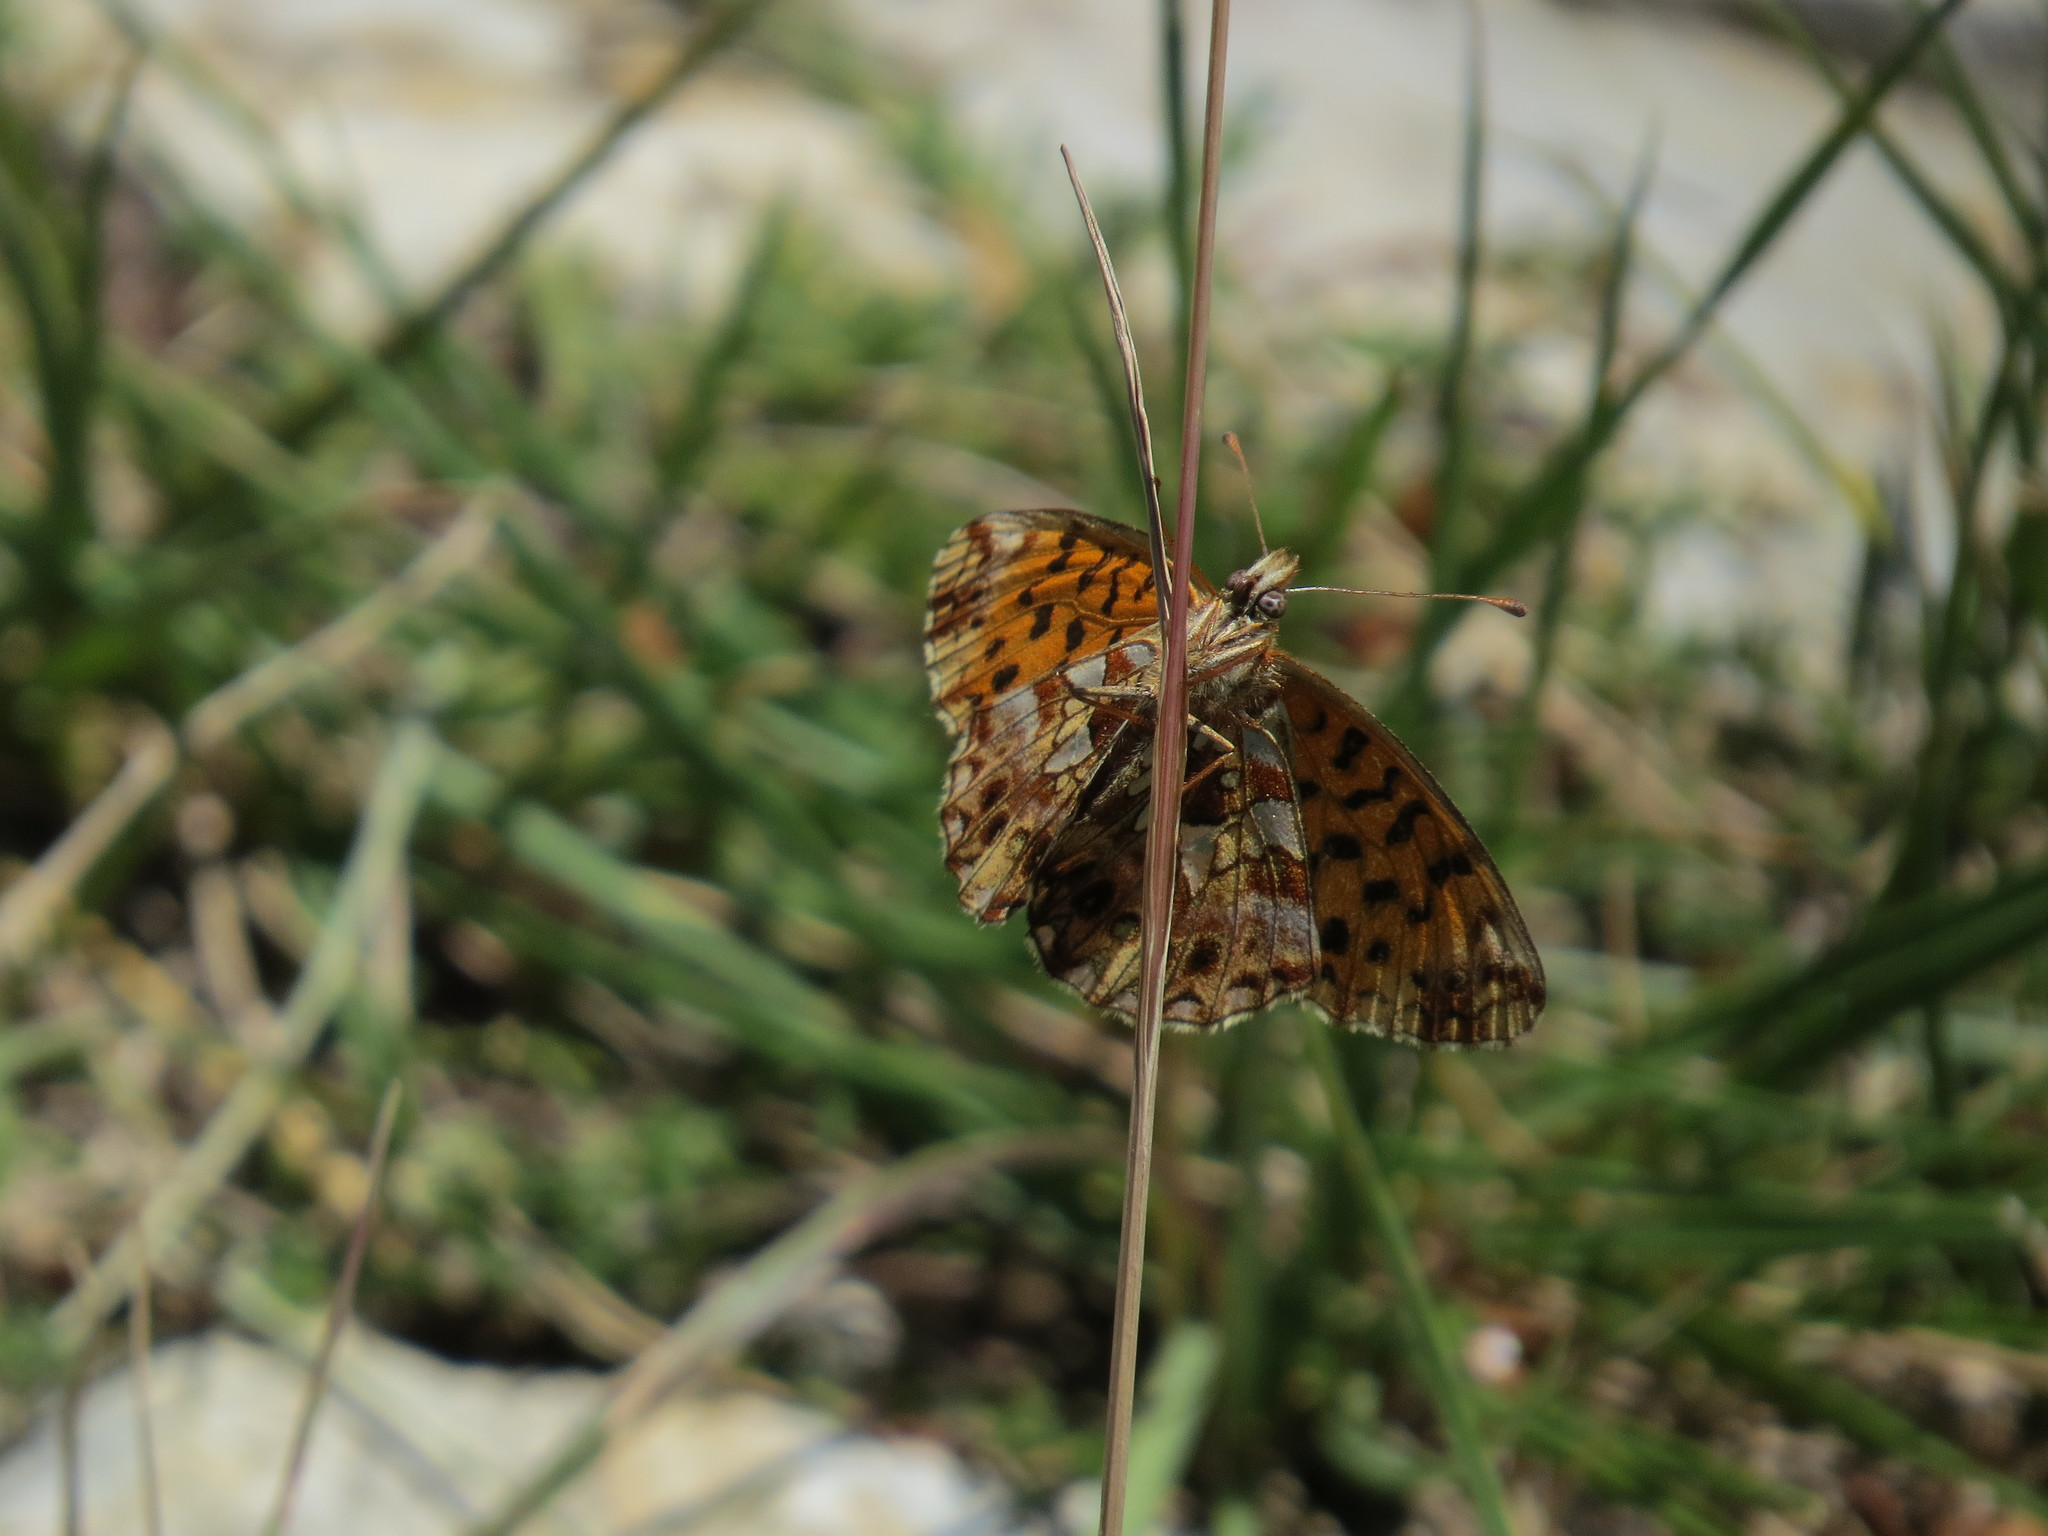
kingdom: Animalia
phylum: Arthropoda
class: Insecta
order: Lepidoptera
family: Nymphalidae
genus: Boloria
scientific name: Boloria dia
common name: Weaver's fritillary
